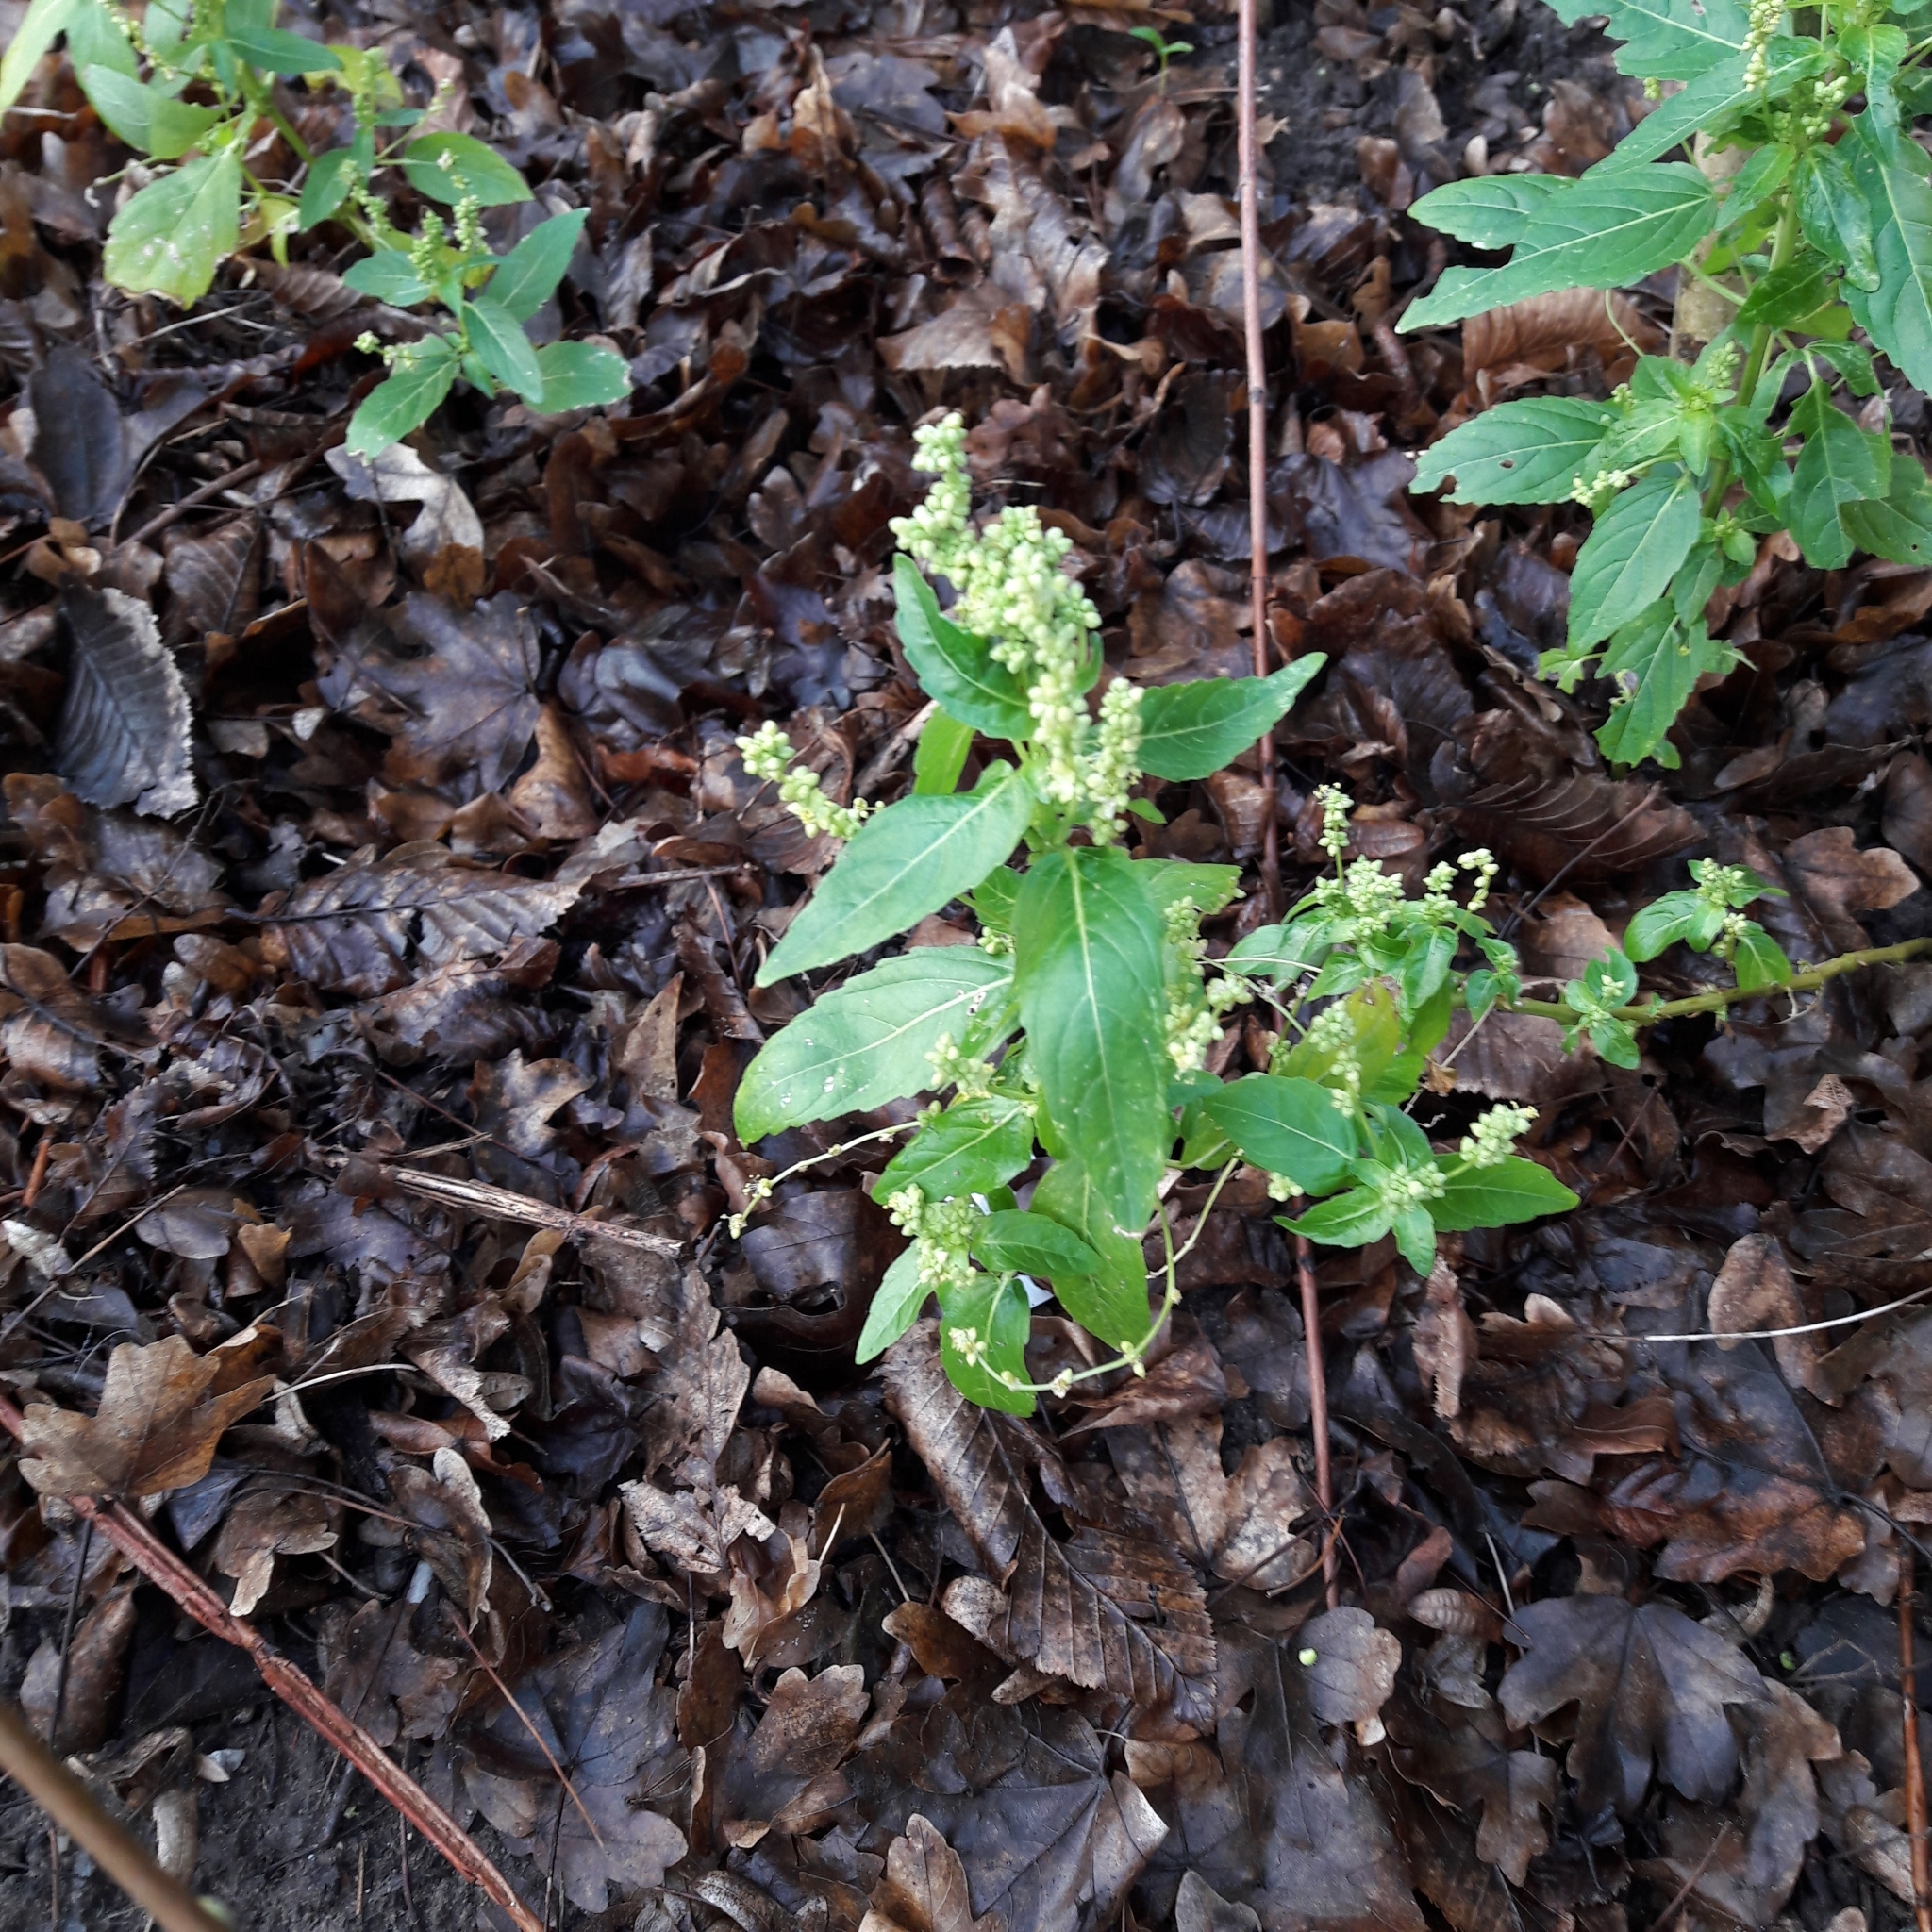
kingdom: Plantae
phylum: Tracheophyta
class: Magnoliopsida
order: Malpighiales
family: Euphorbiaceae
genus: Mercurialis
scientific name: Mercurialis annua
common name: Annual mercury
